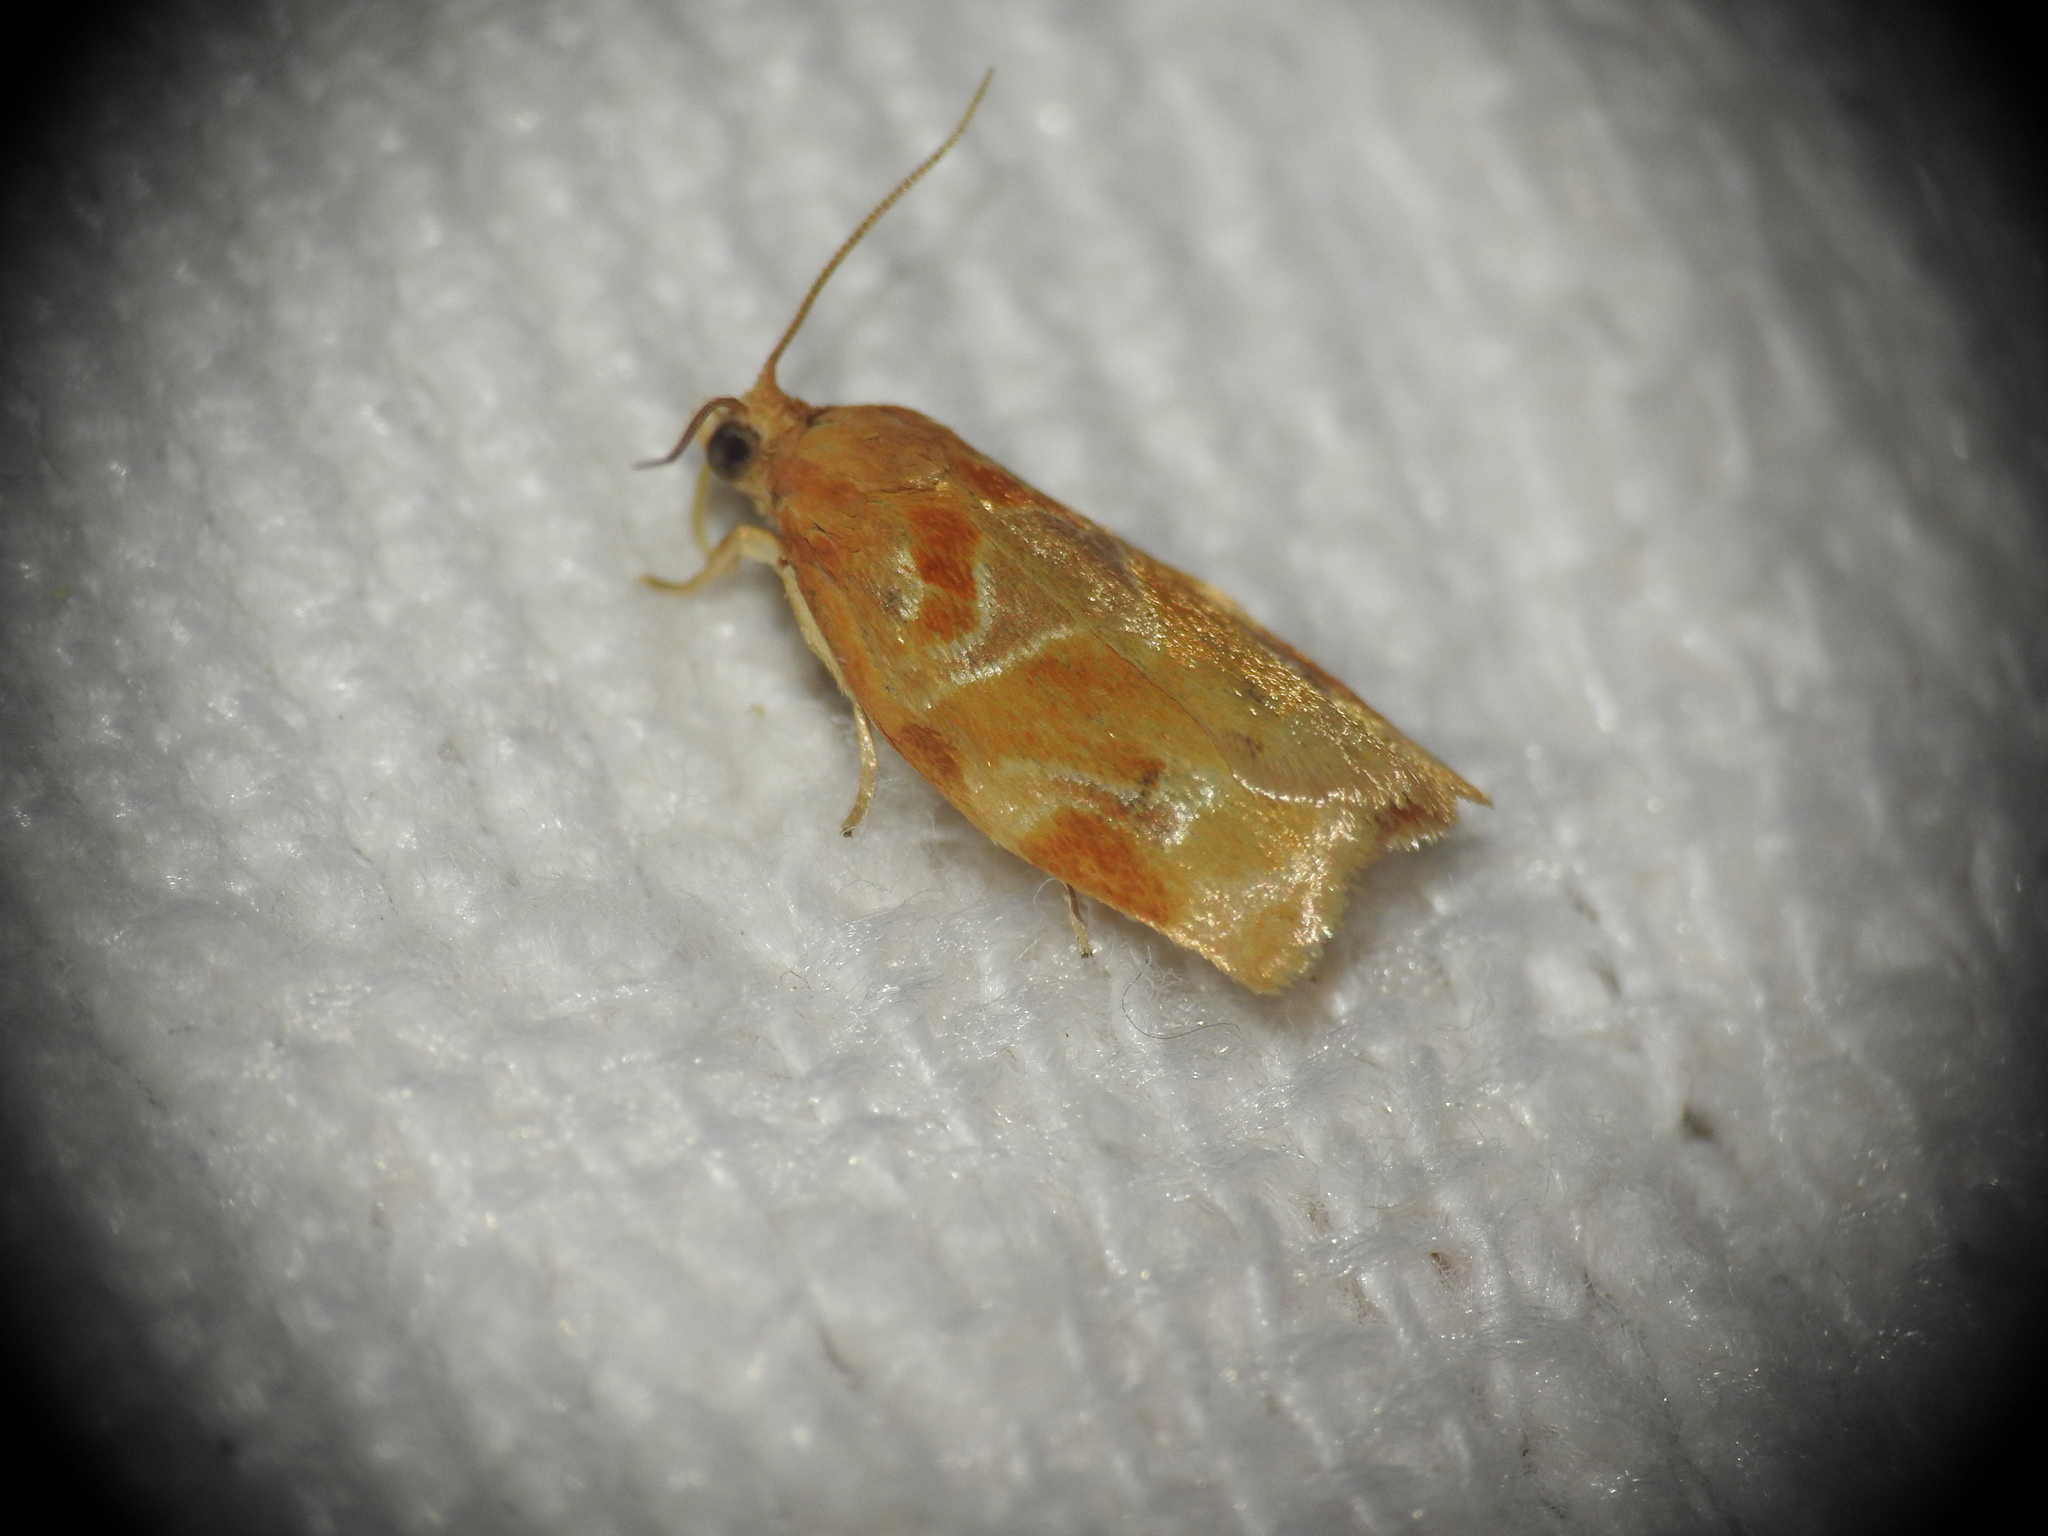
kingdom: Animalia
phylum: Arthropoda
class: Insecta
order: Lepidoptera
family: Tortricidae
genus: Archips
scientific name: Archips xylosteana
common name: Variegated golden tortrix
